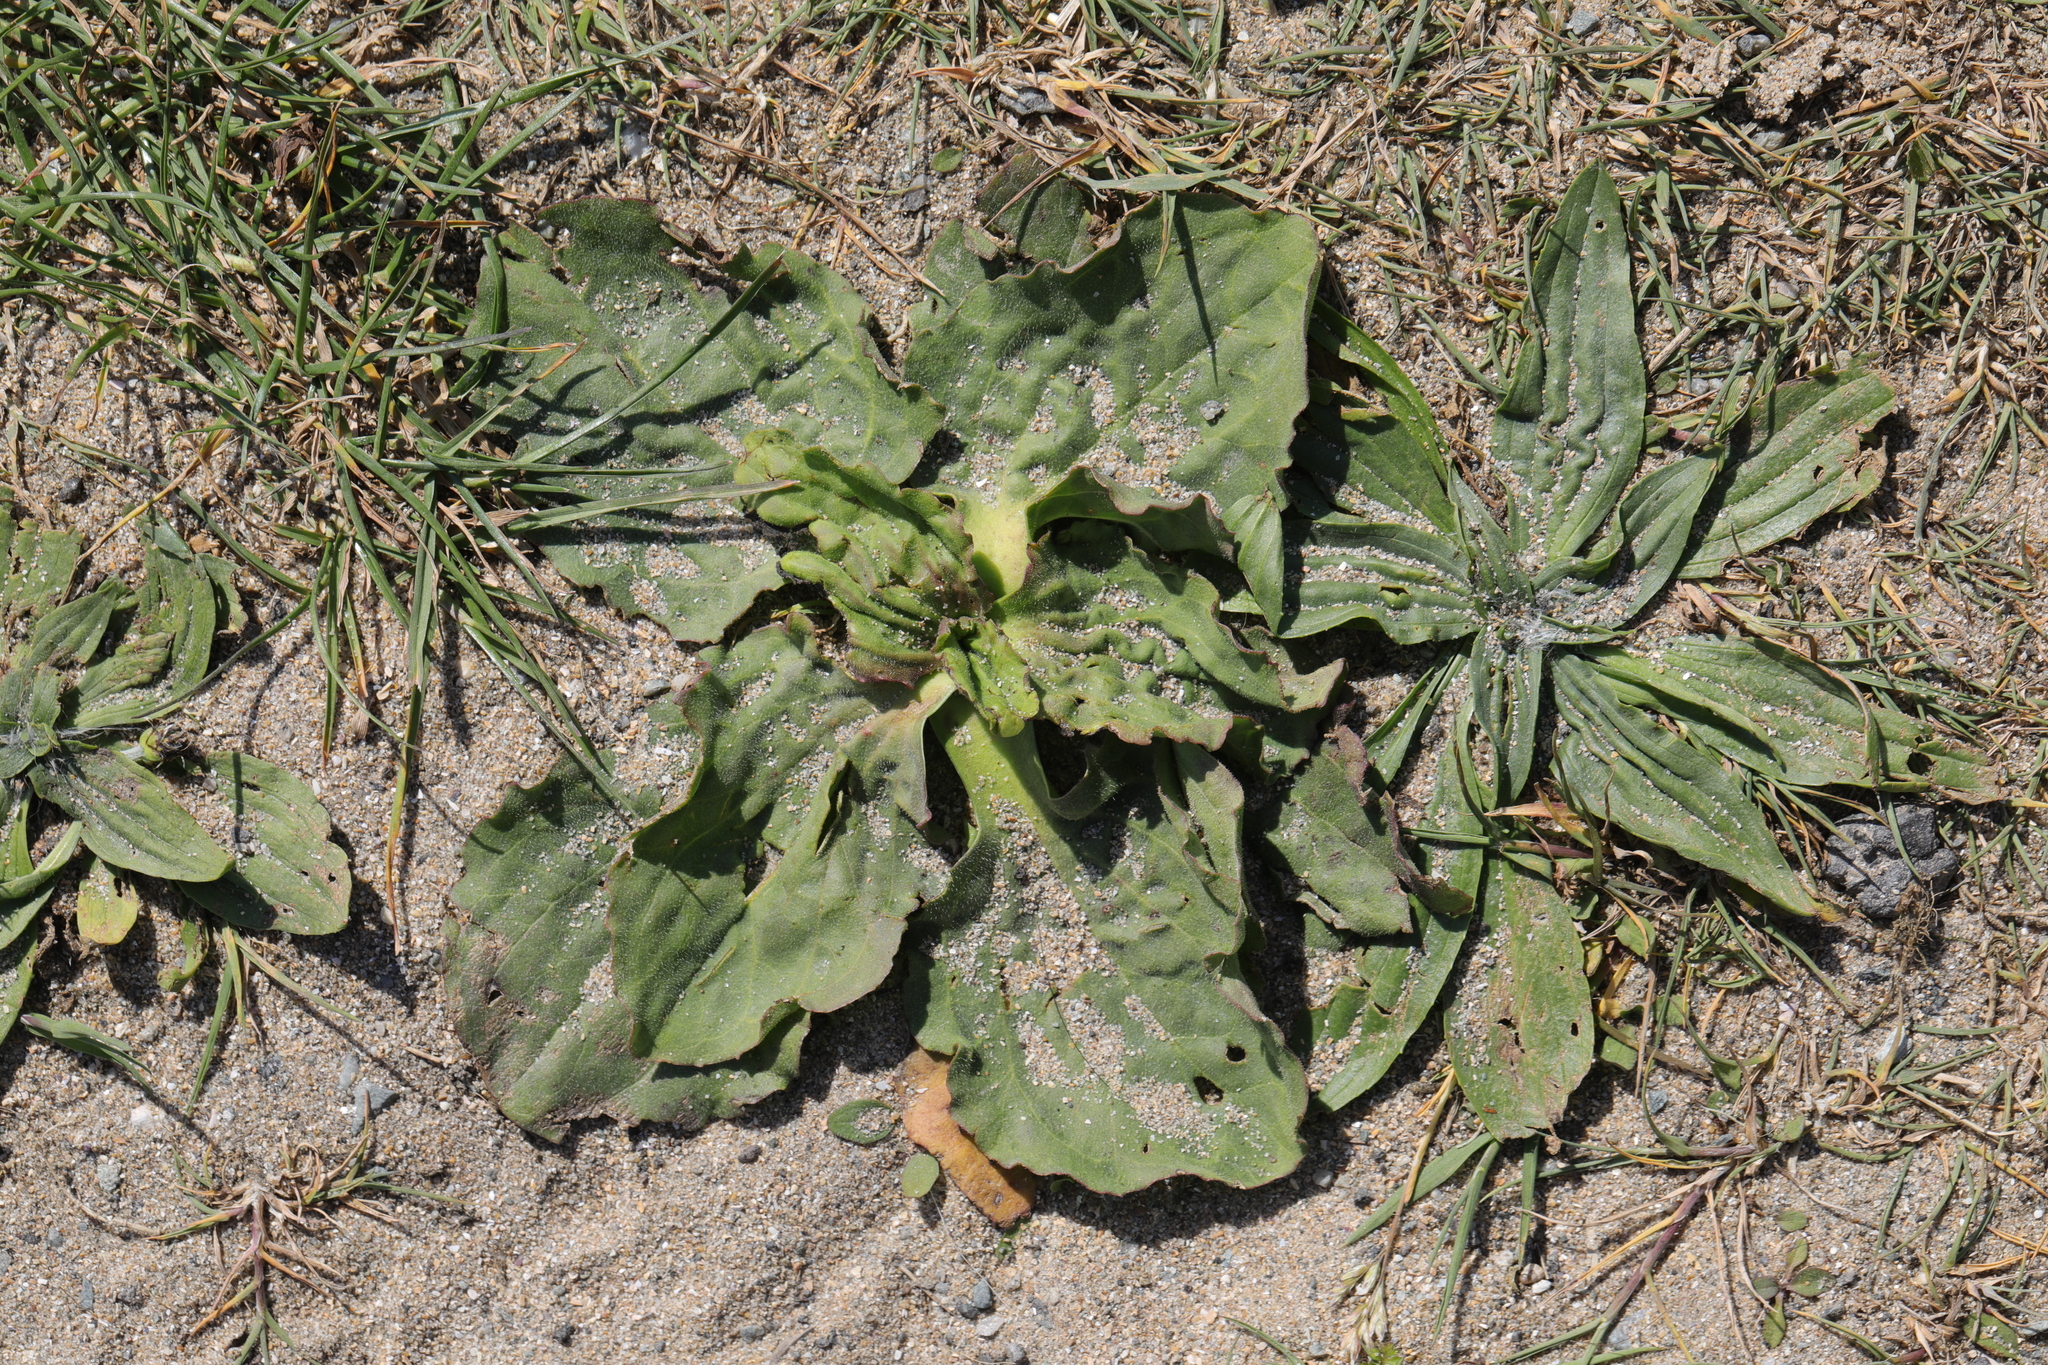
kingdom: Plantae
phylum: Tracheophyta
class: Magnoliopsida
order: Lamiales
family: Plantaginaceae
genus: Plantago
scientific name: Plantago major
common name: Common plantain
